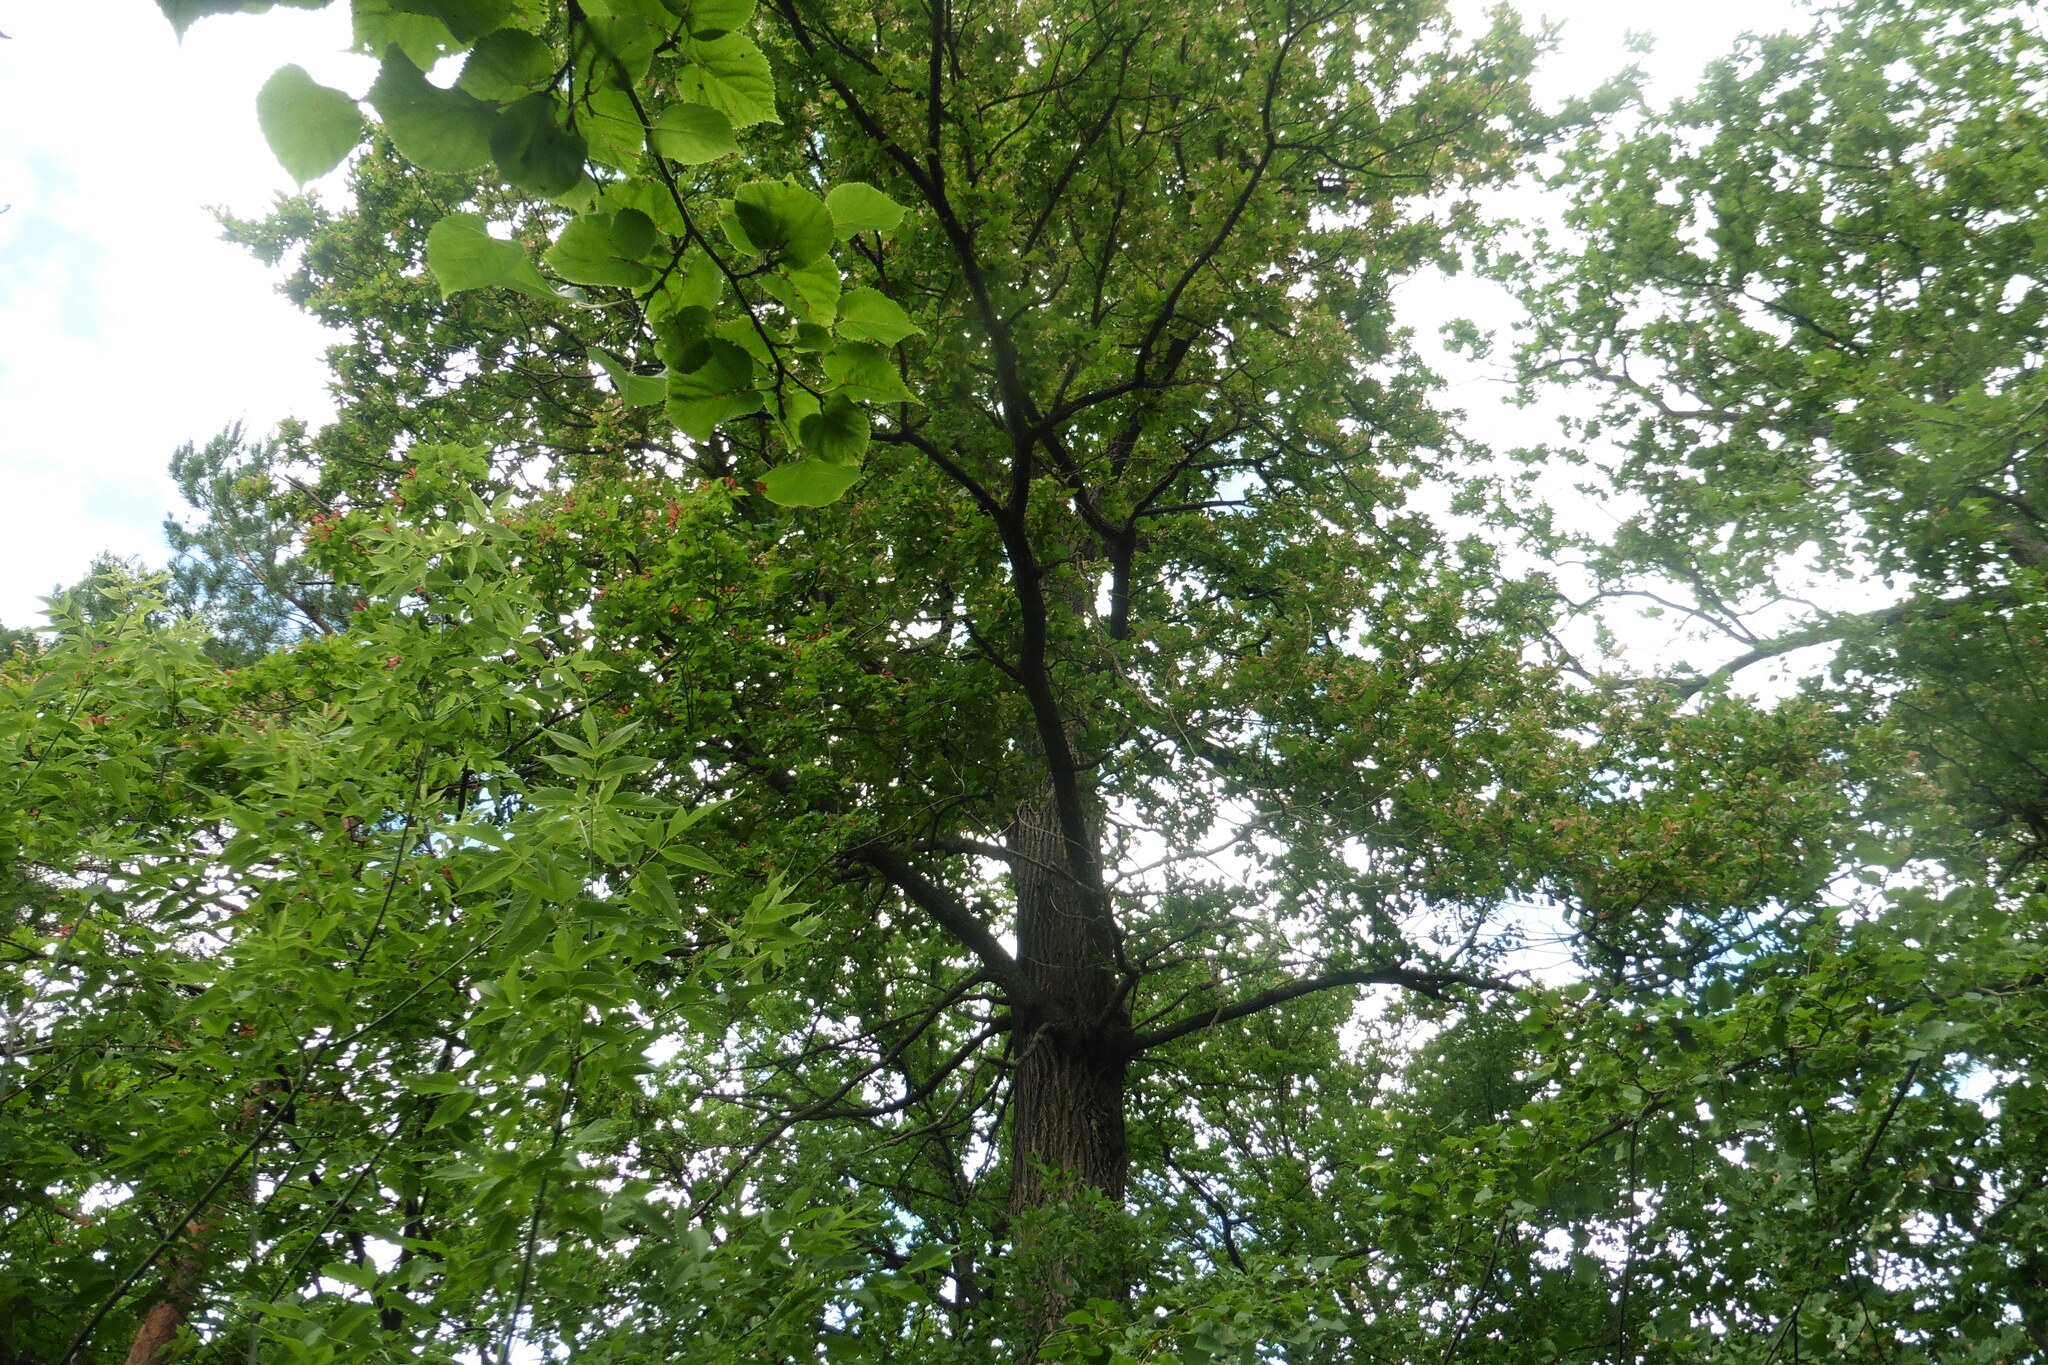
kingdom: Plantae
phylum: Tracheophyta
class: Magnoliopsida
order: Fagales
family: Fagaceae
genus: Quercus
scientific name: Quercus robur
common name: Pedunculate oak
